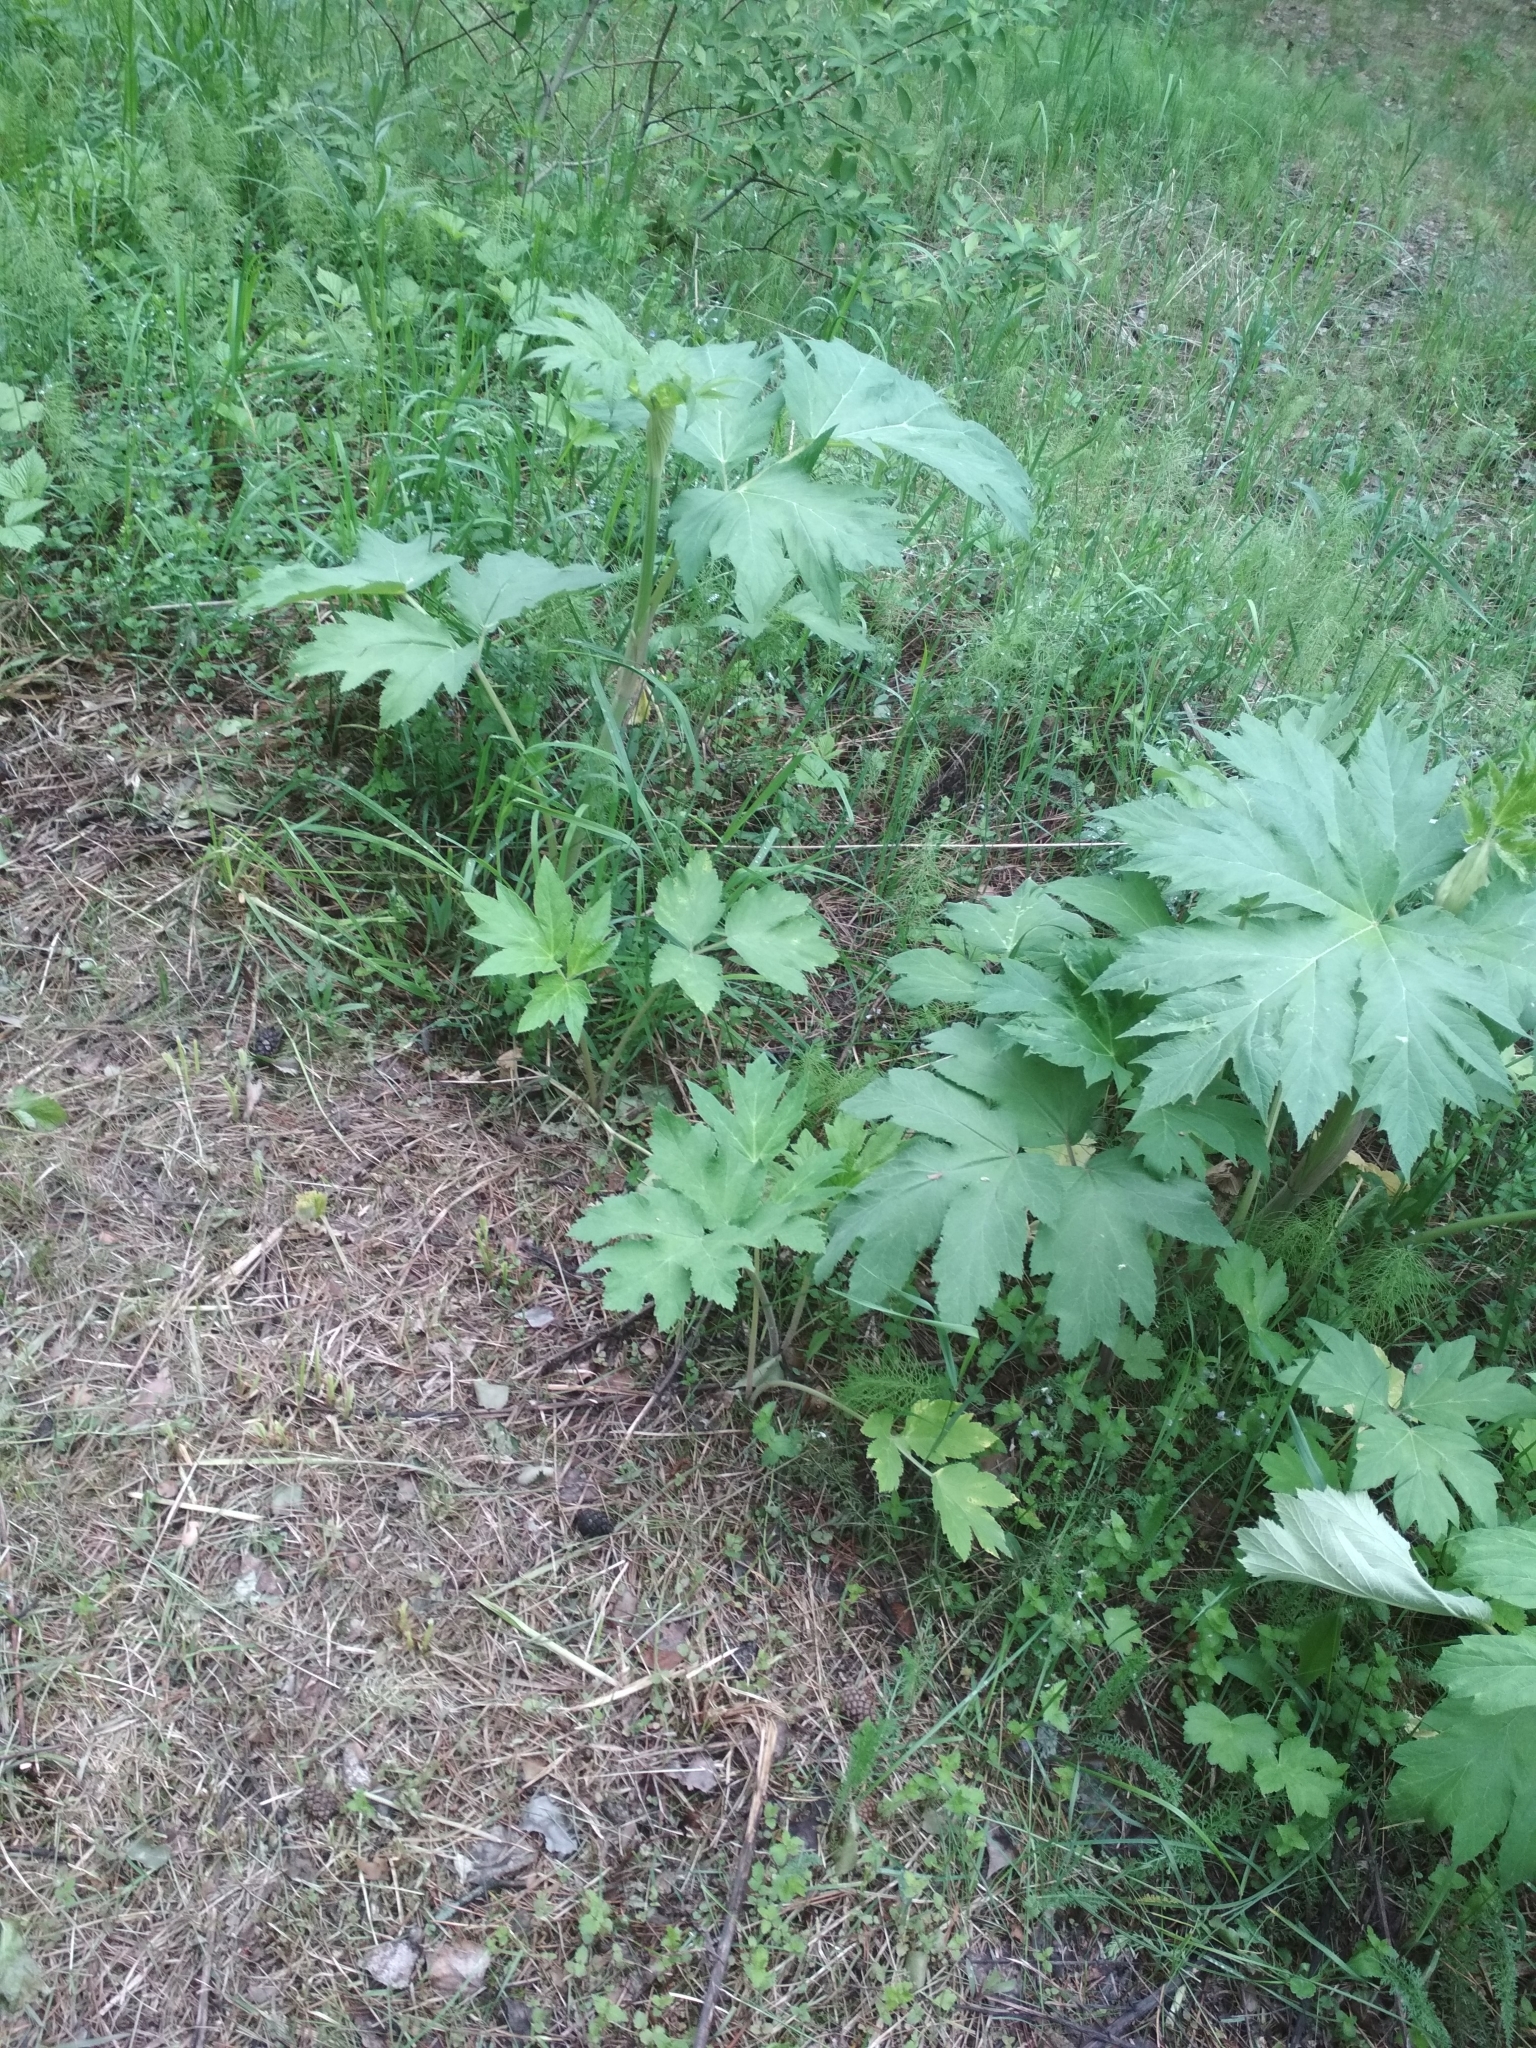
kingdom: Plantae
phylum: Tracheophyta
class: Magnoliopsida
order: Apiales
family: Apiaceae
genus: Heracleum
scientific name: Heracleum dissectum
